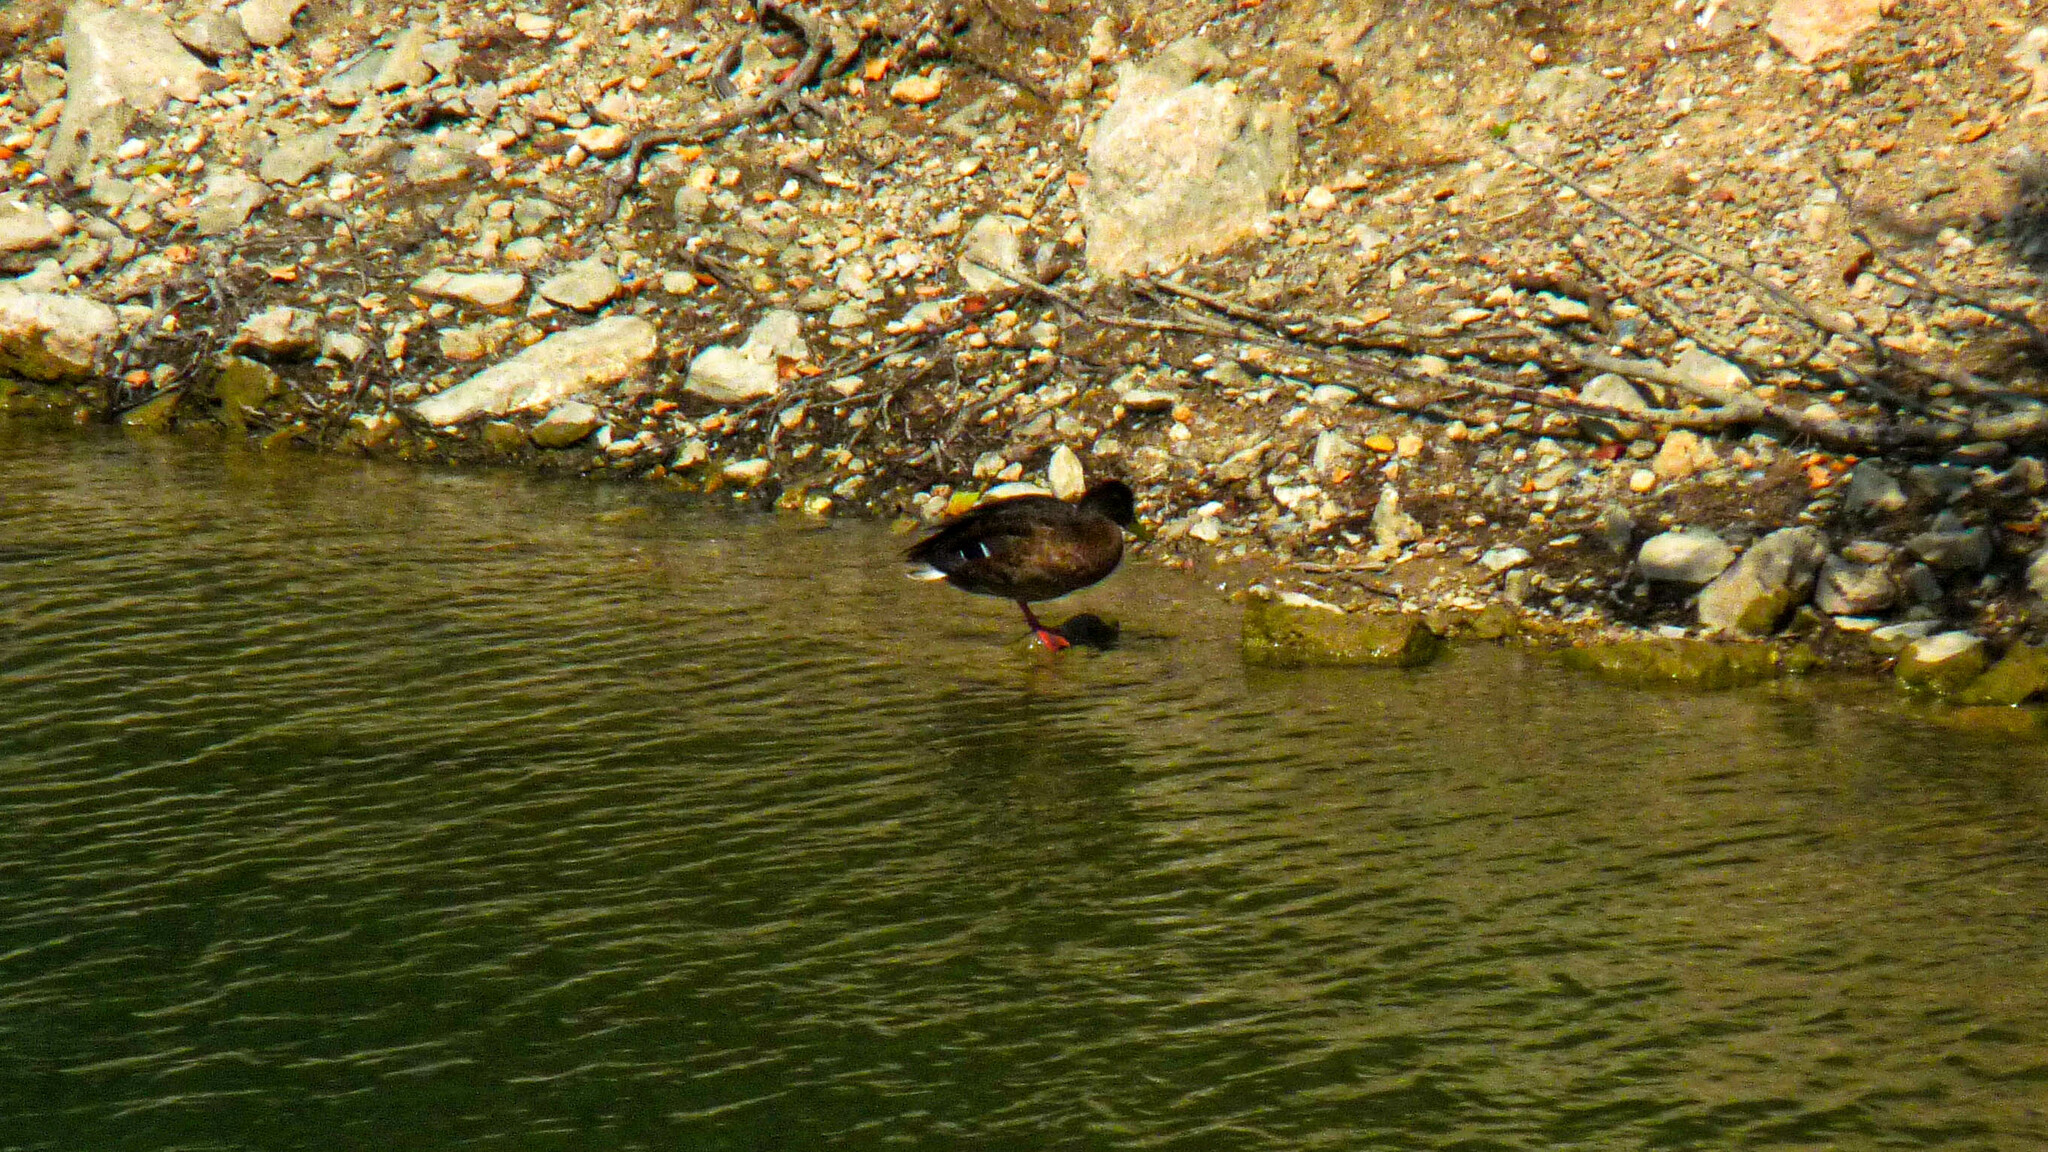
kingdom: Animalia
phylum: Chordata
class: Aves
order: Anseriformes
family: Anatidae
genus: Anas
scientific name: Anas platyrhynchos
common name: Mallard
